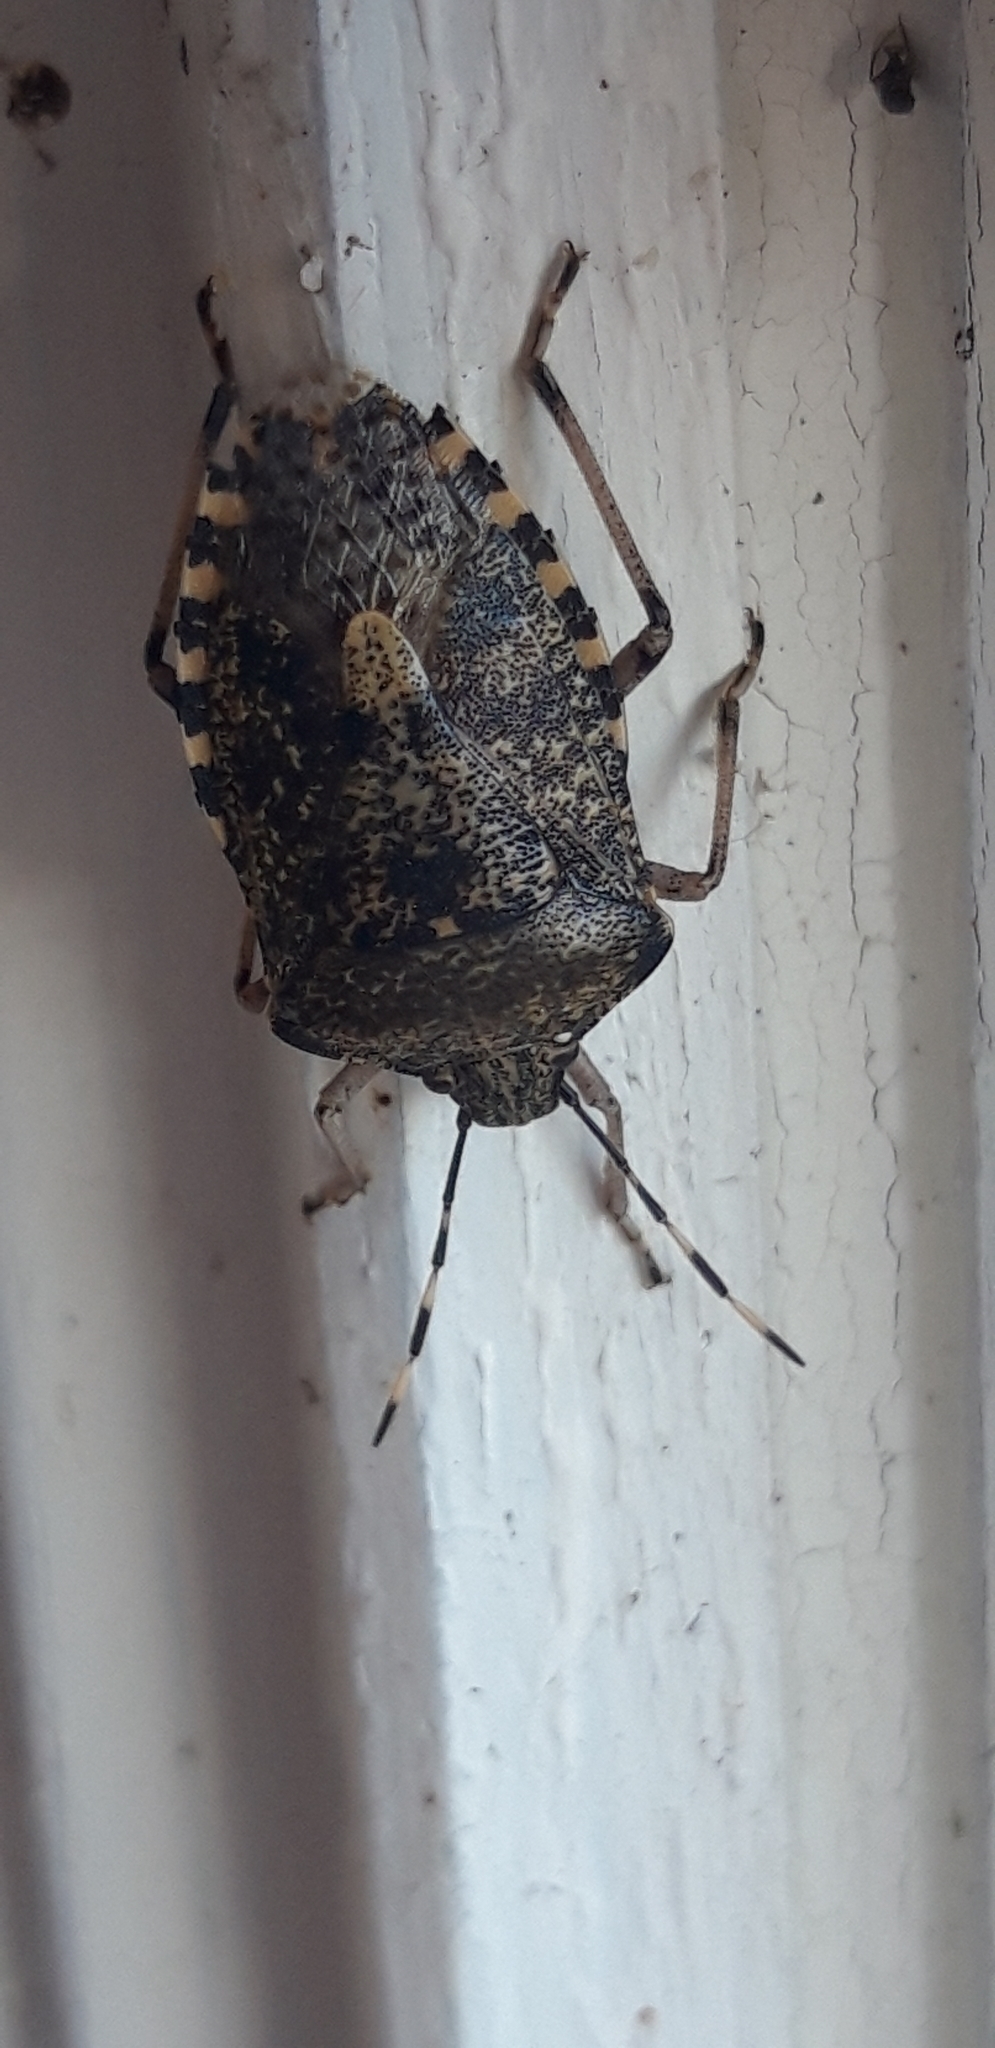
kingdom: Animalia
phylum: Arthropoda
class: Insecta
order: Hemiptera
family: Pentatomidae
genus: Rhaphigaster
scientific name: Rhaphigaster nebulosa
